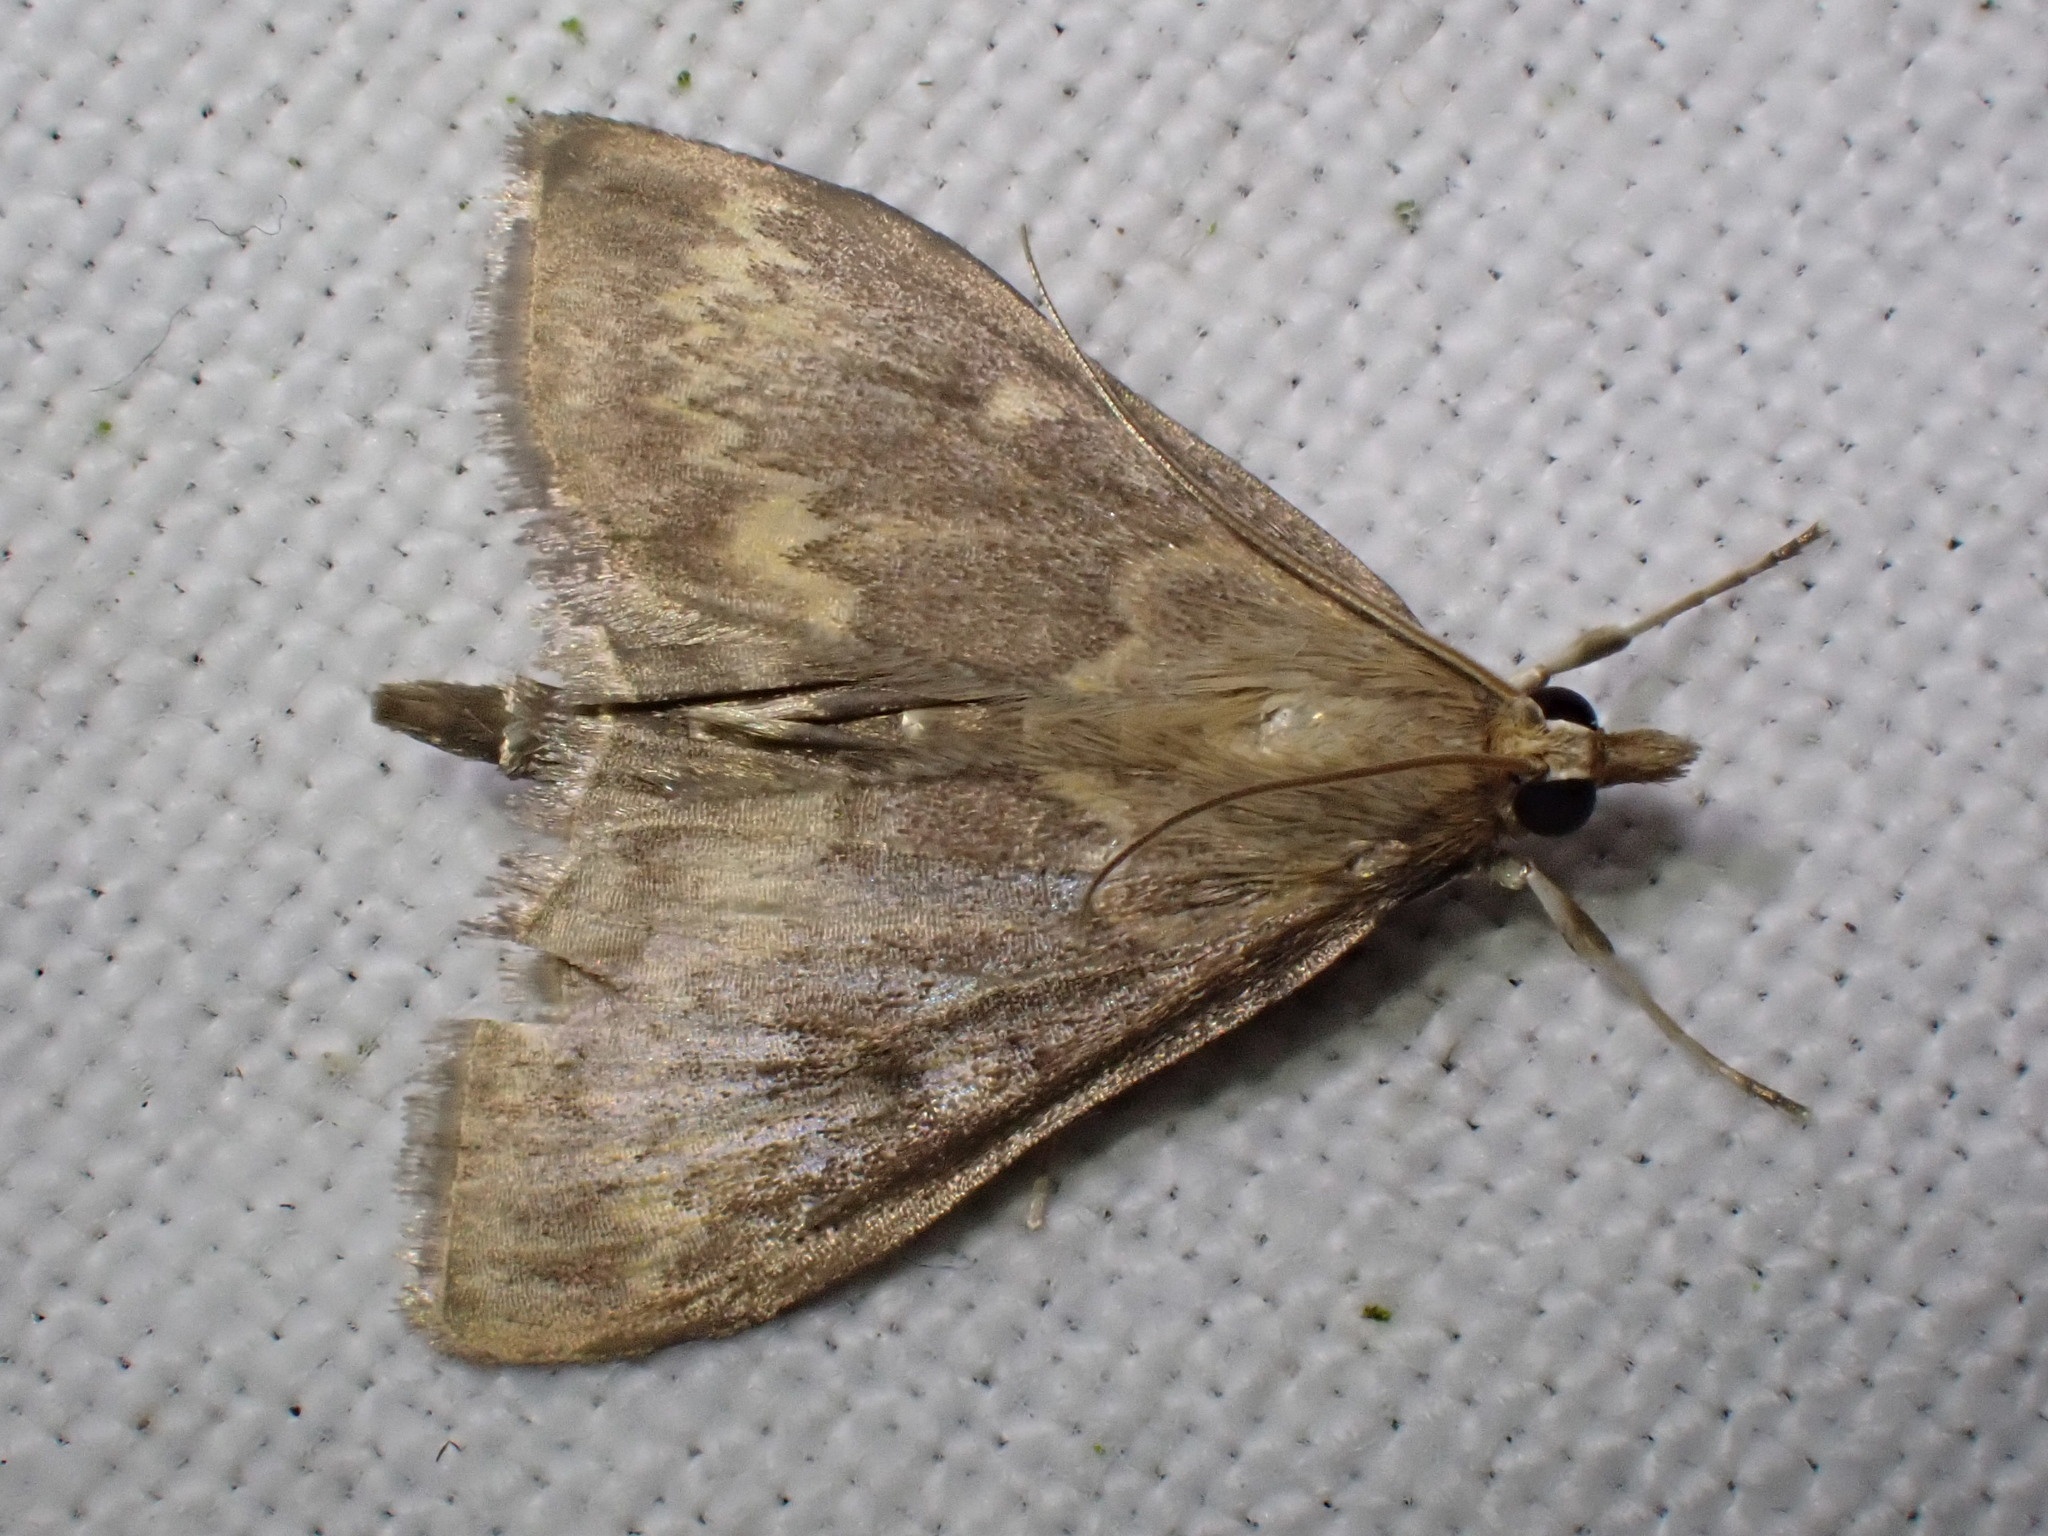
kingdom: Animalia
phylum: Arthropoda
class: Insecta
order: Lepidoptera
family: Crambidae
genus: Ostrinia
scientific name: Ostrinia nubilalis
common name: European corn borer
